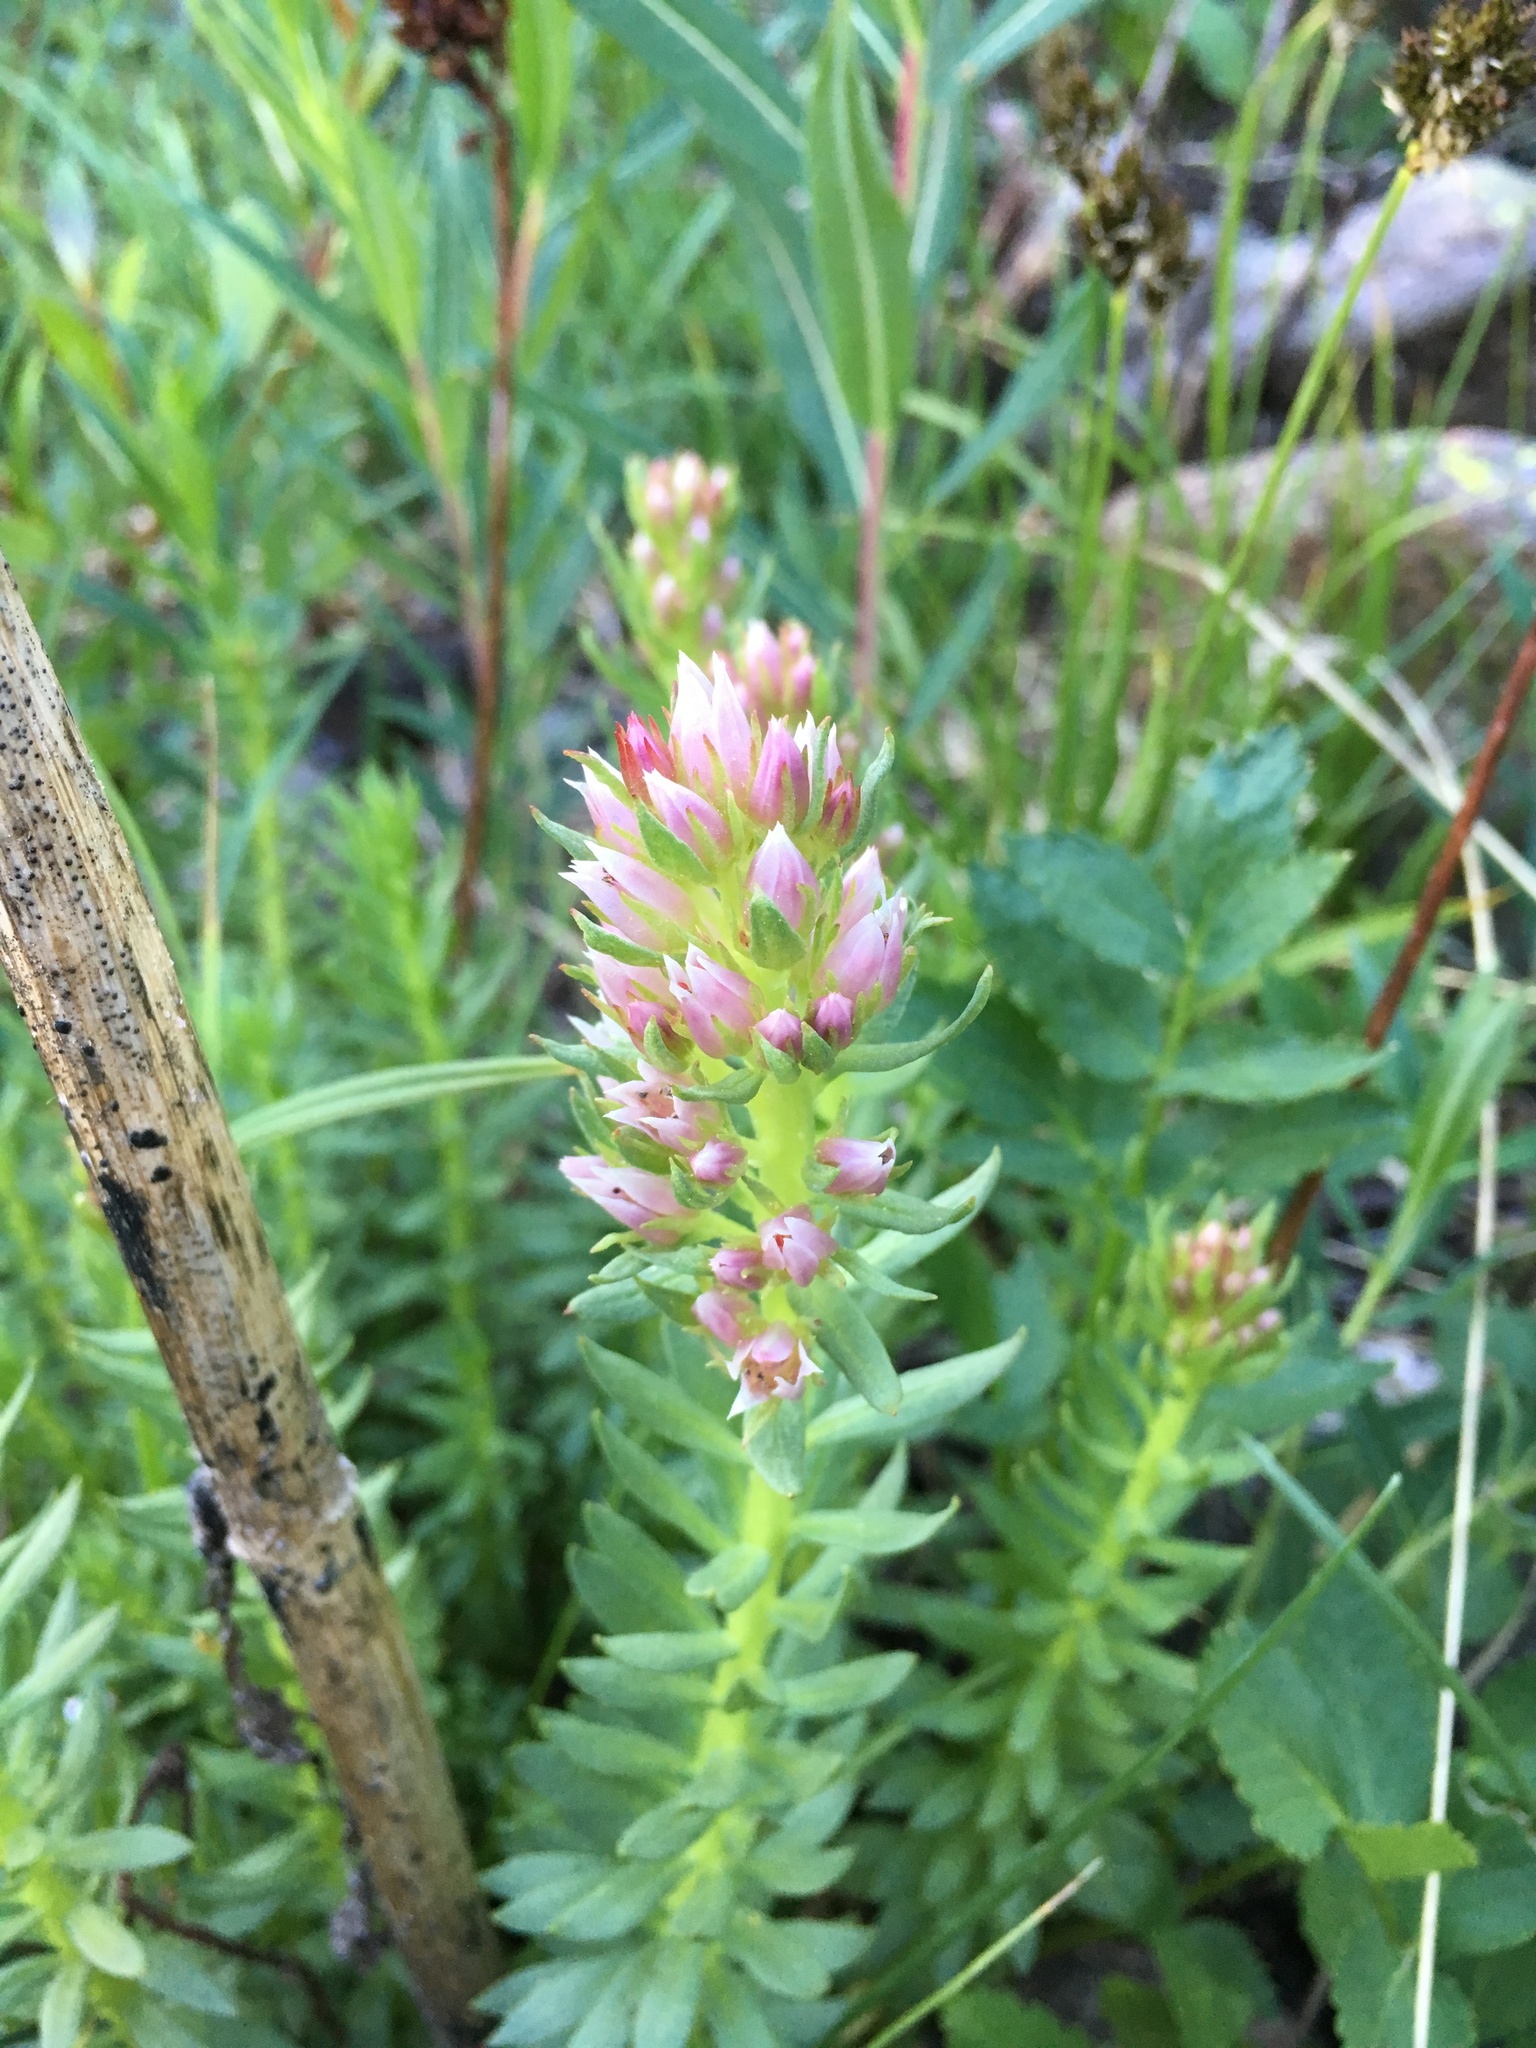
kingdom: Plantae
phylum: Tracheophyta
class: Magnoliopsida
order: Saxifragales
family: Crassulaceae
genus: Rhodiola
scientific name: Rhodiola rhodantha
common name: Red orpine
